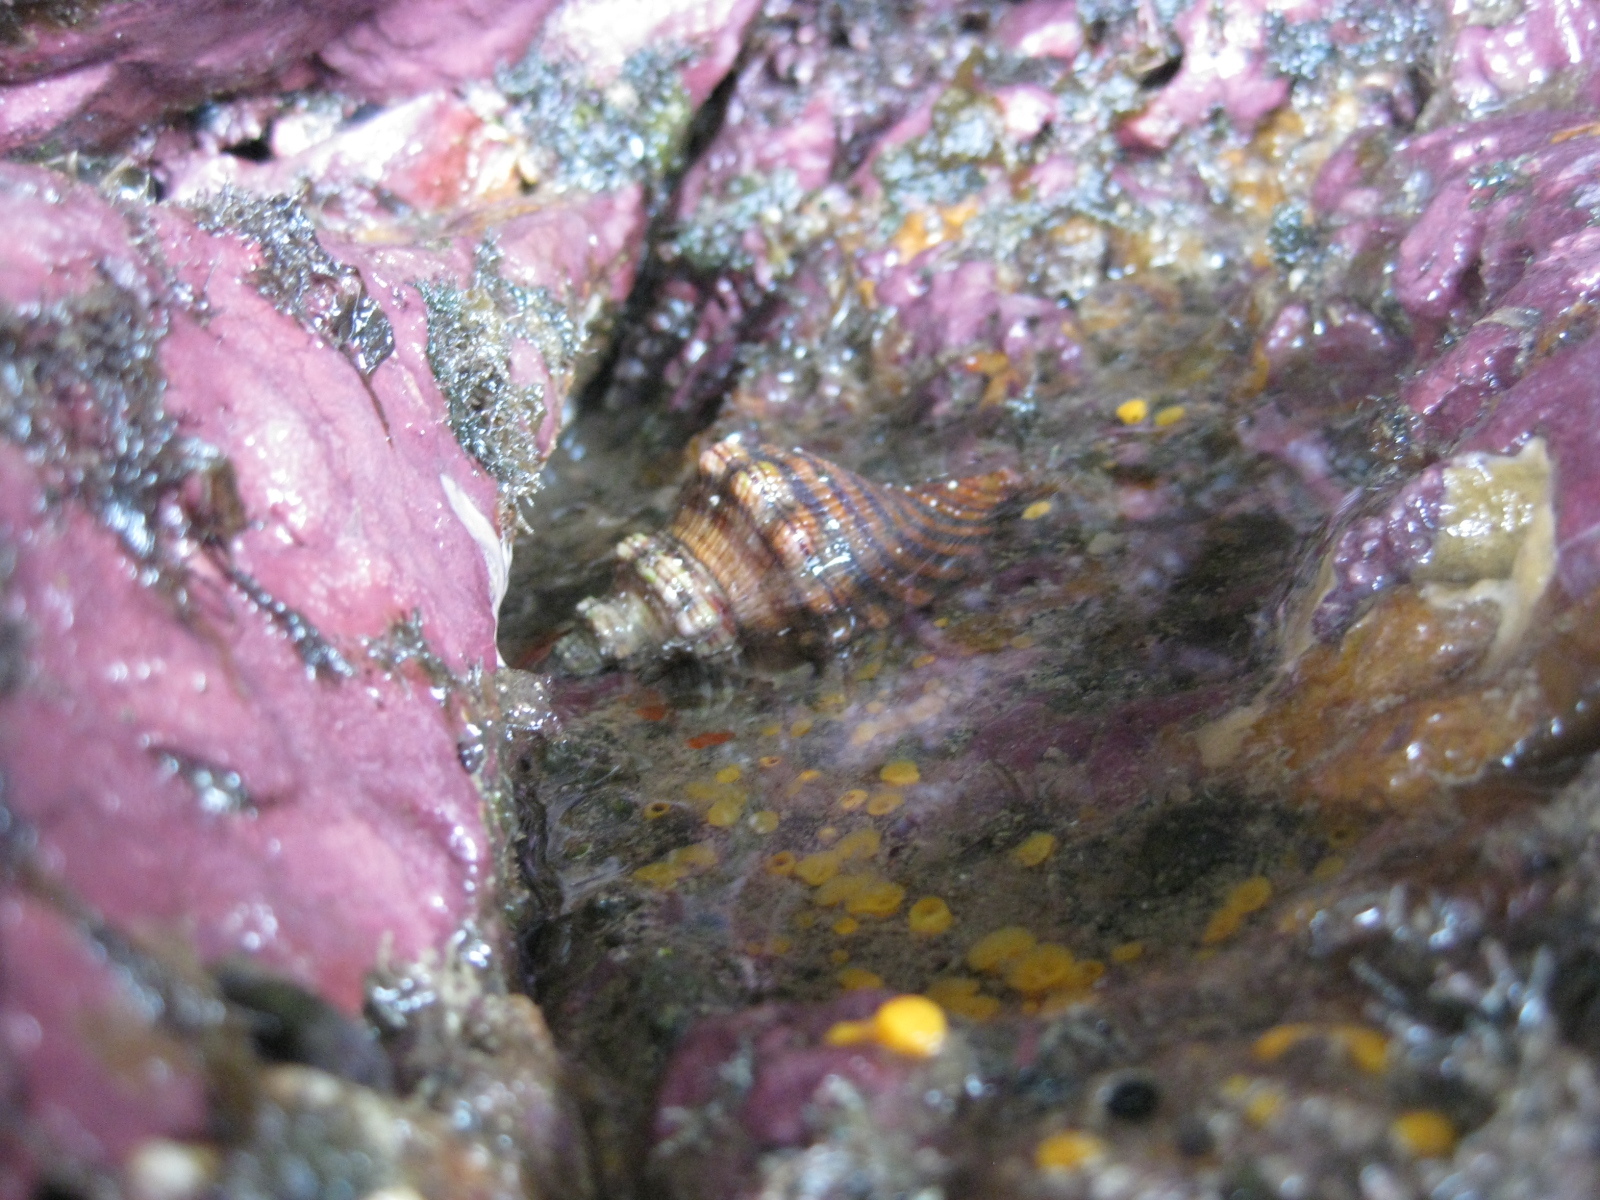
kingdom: Animalia
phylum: Mollusca
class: Gastropoda
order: Littorinimorpha
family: Cymatiidae
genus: Cabestana
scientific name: Cabestana spengleri
